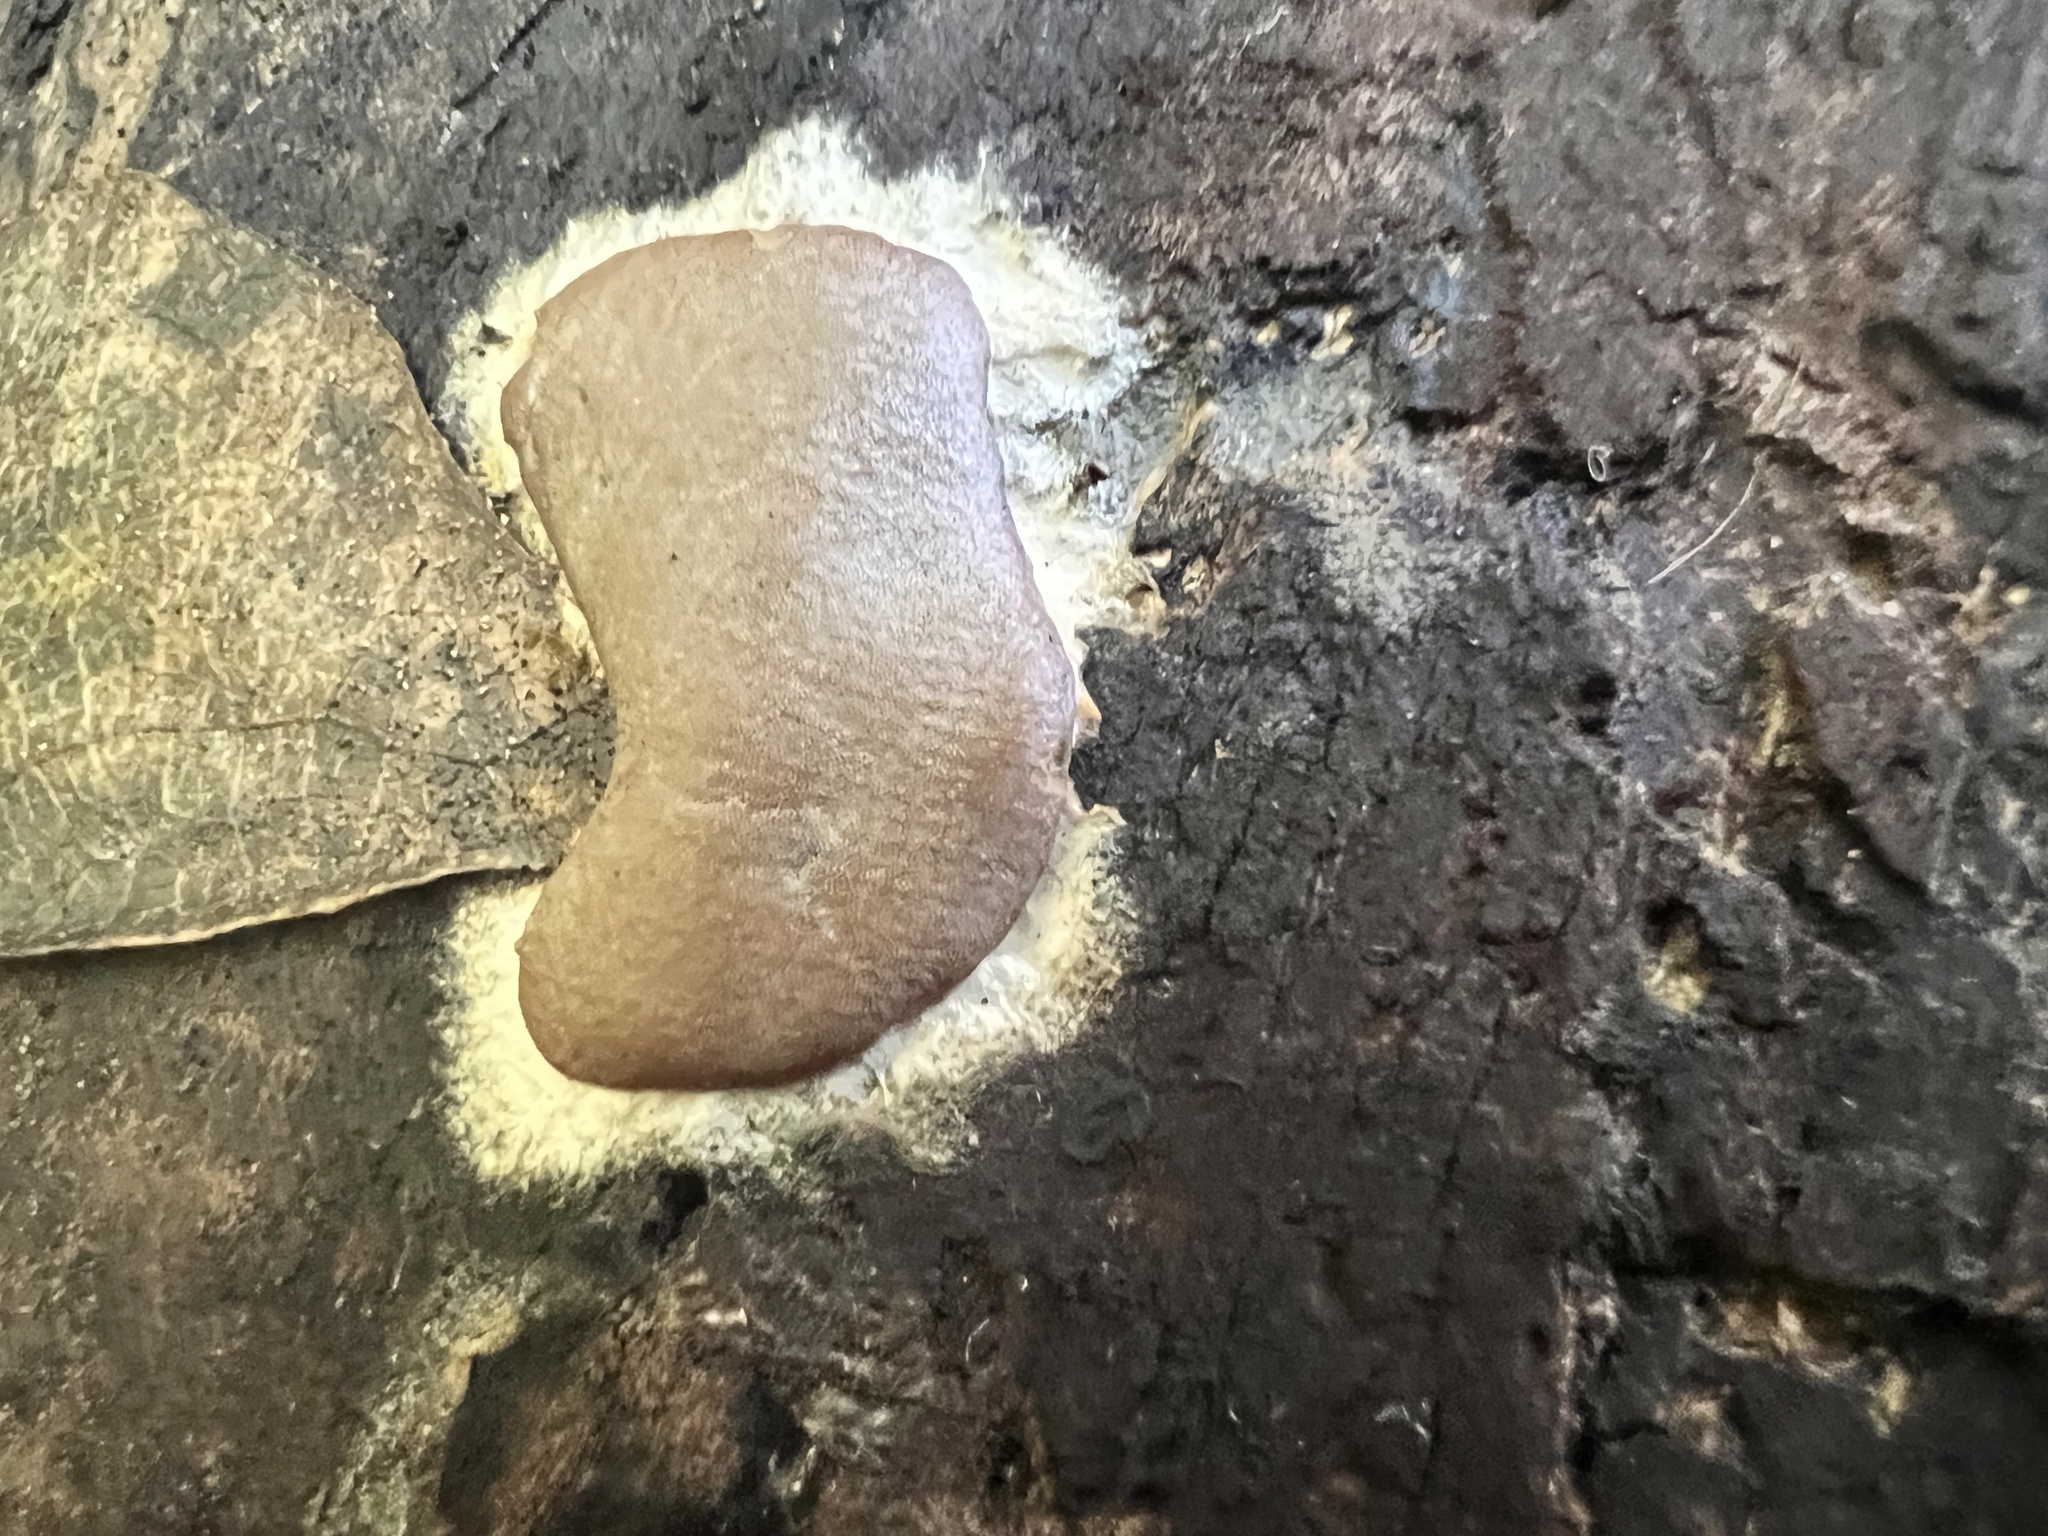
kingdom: Protozoa
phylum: Mycetozoa
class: Myxomycetes
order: Trichiales
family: Dictydiaethaliaceae
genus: Dictydiaethalium
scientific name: Dictydiaethalium plumbeum
